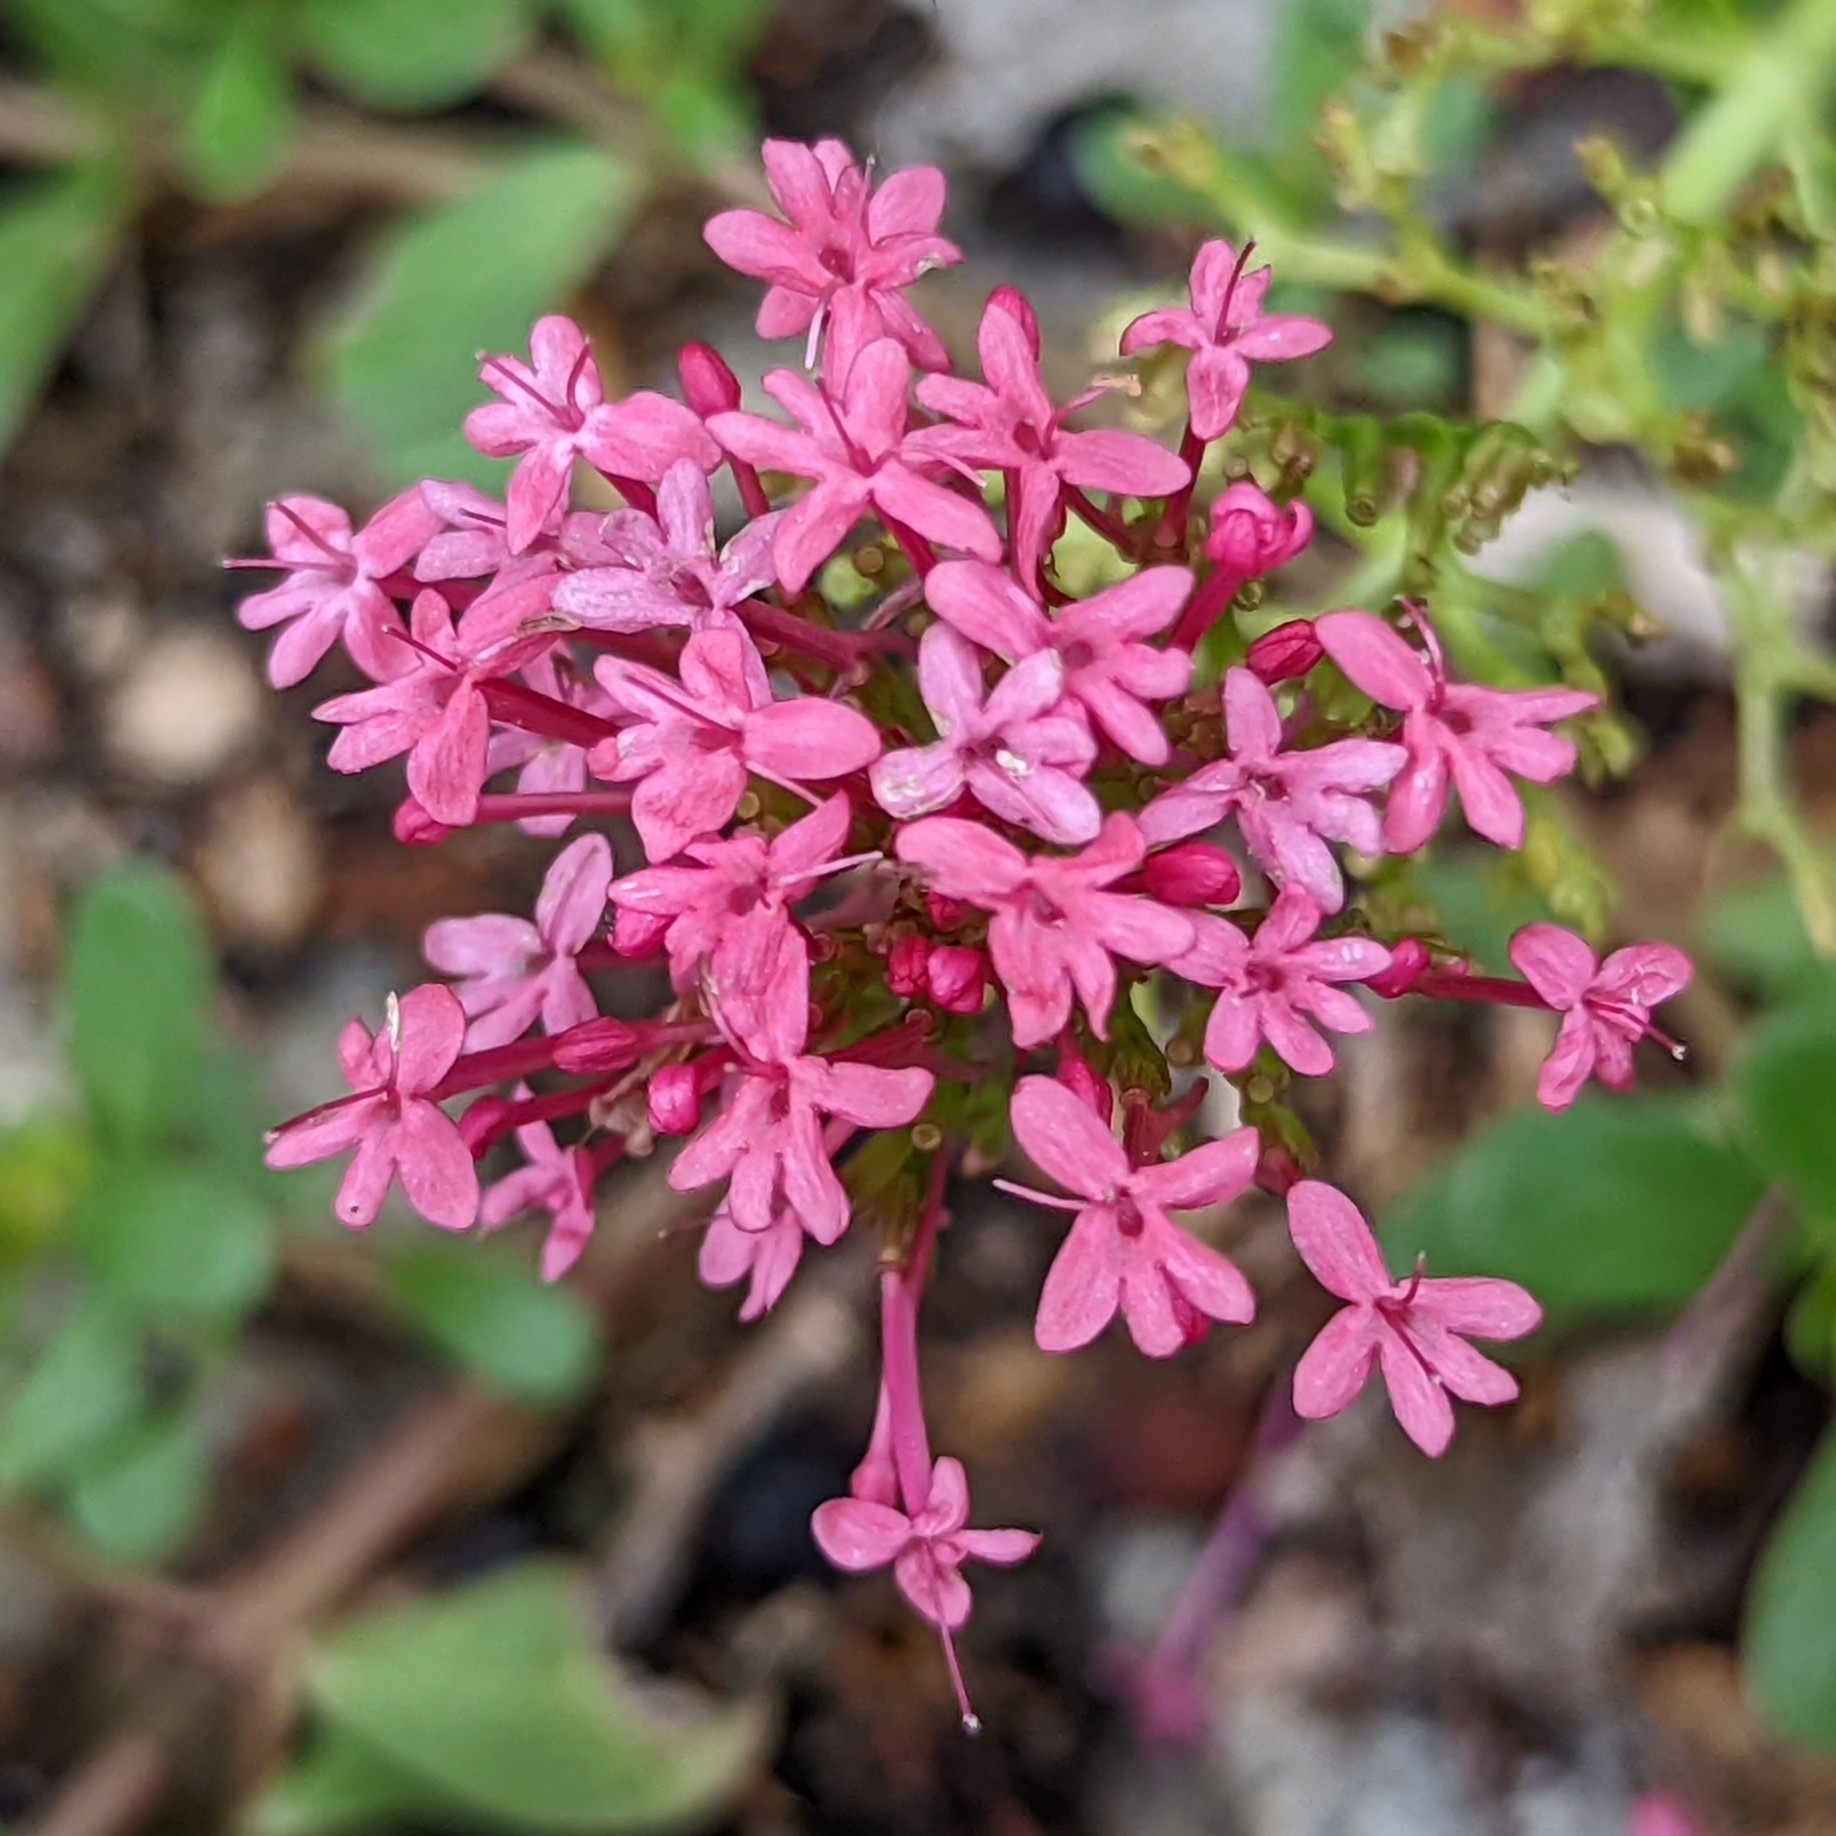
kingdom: Plantae
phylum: Tracheophyta
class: Magnoliopsida
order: Dipsacales
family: Caprifoliaceae
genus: Centranthus
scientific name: Centranthus ruber
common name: Red valerian
